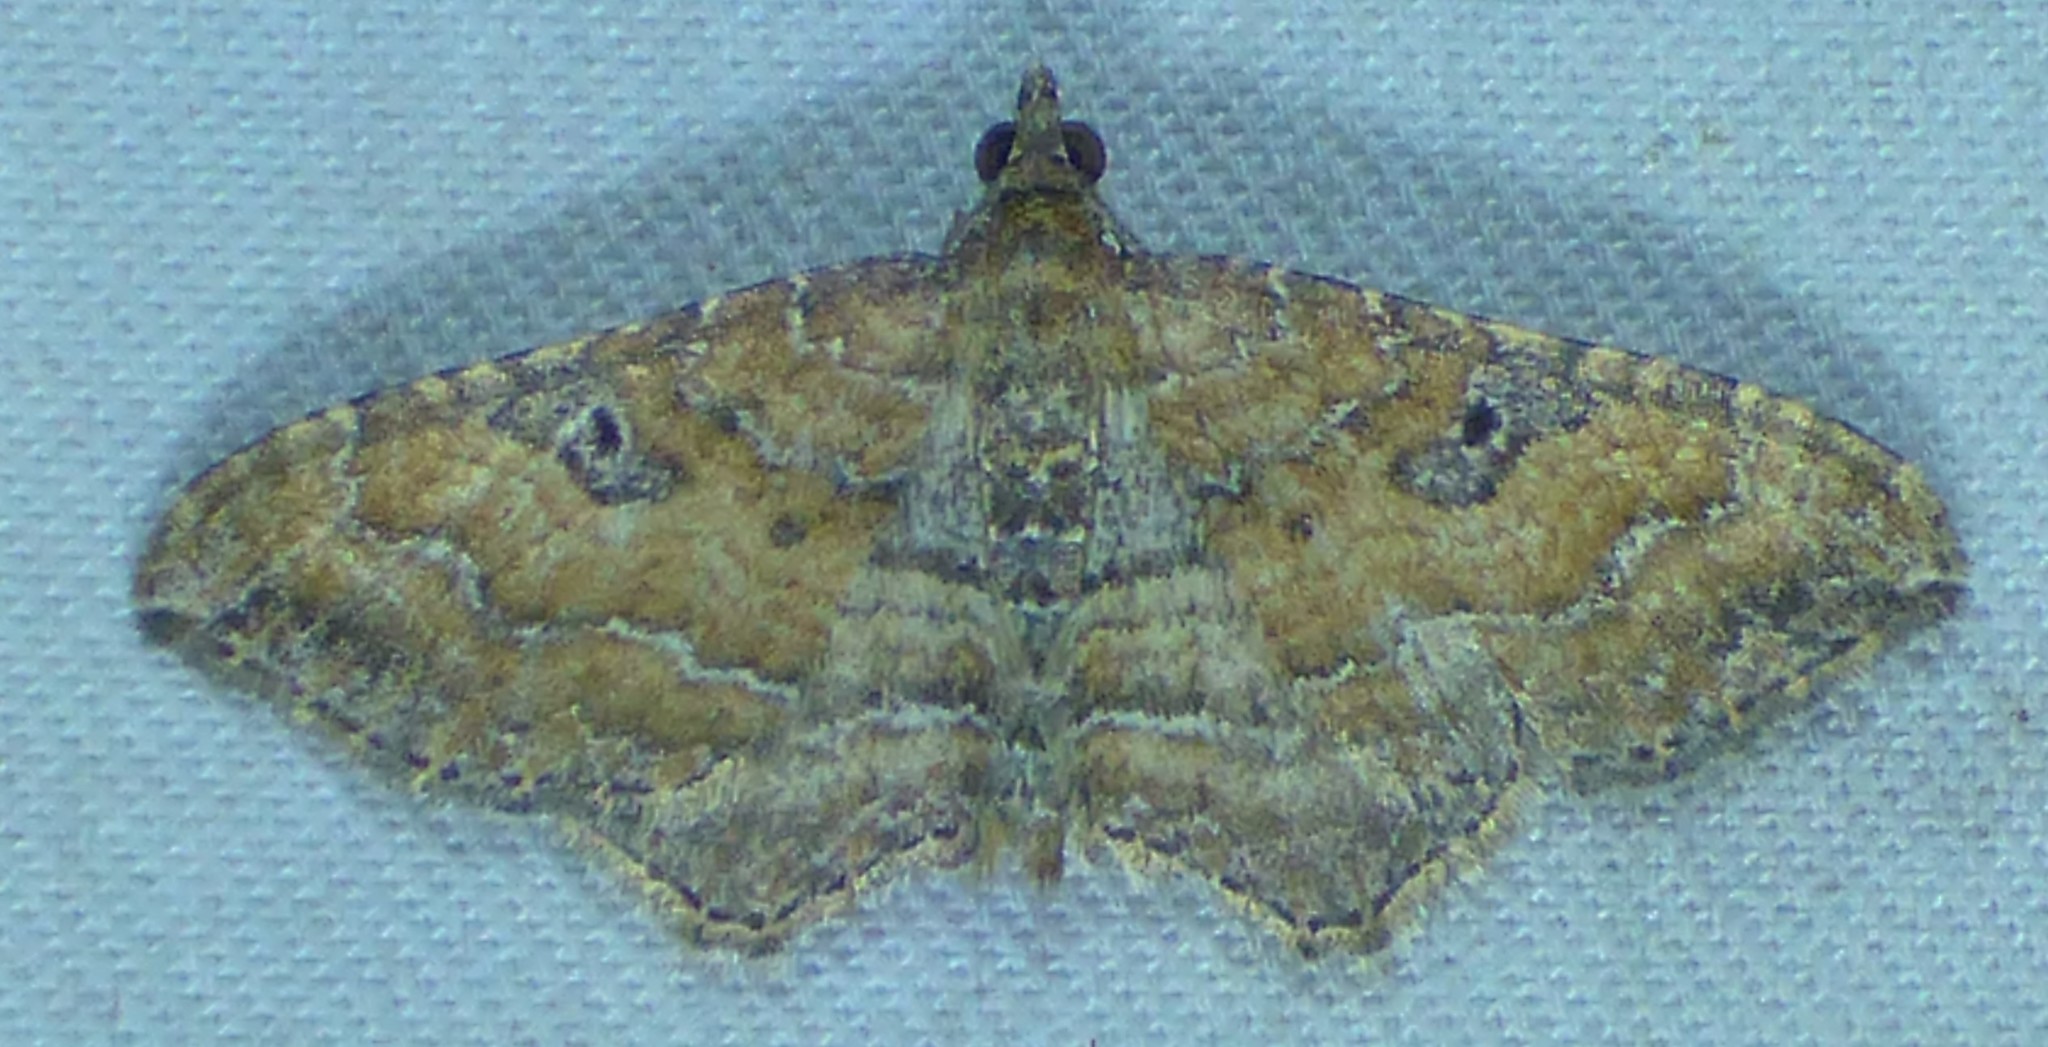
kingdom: Animalia
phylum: Arthropoda
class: Insecta
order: Lepidoptera
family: Geometridae
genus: Orthonama
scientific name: Orthonama obstipata
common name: The gem
